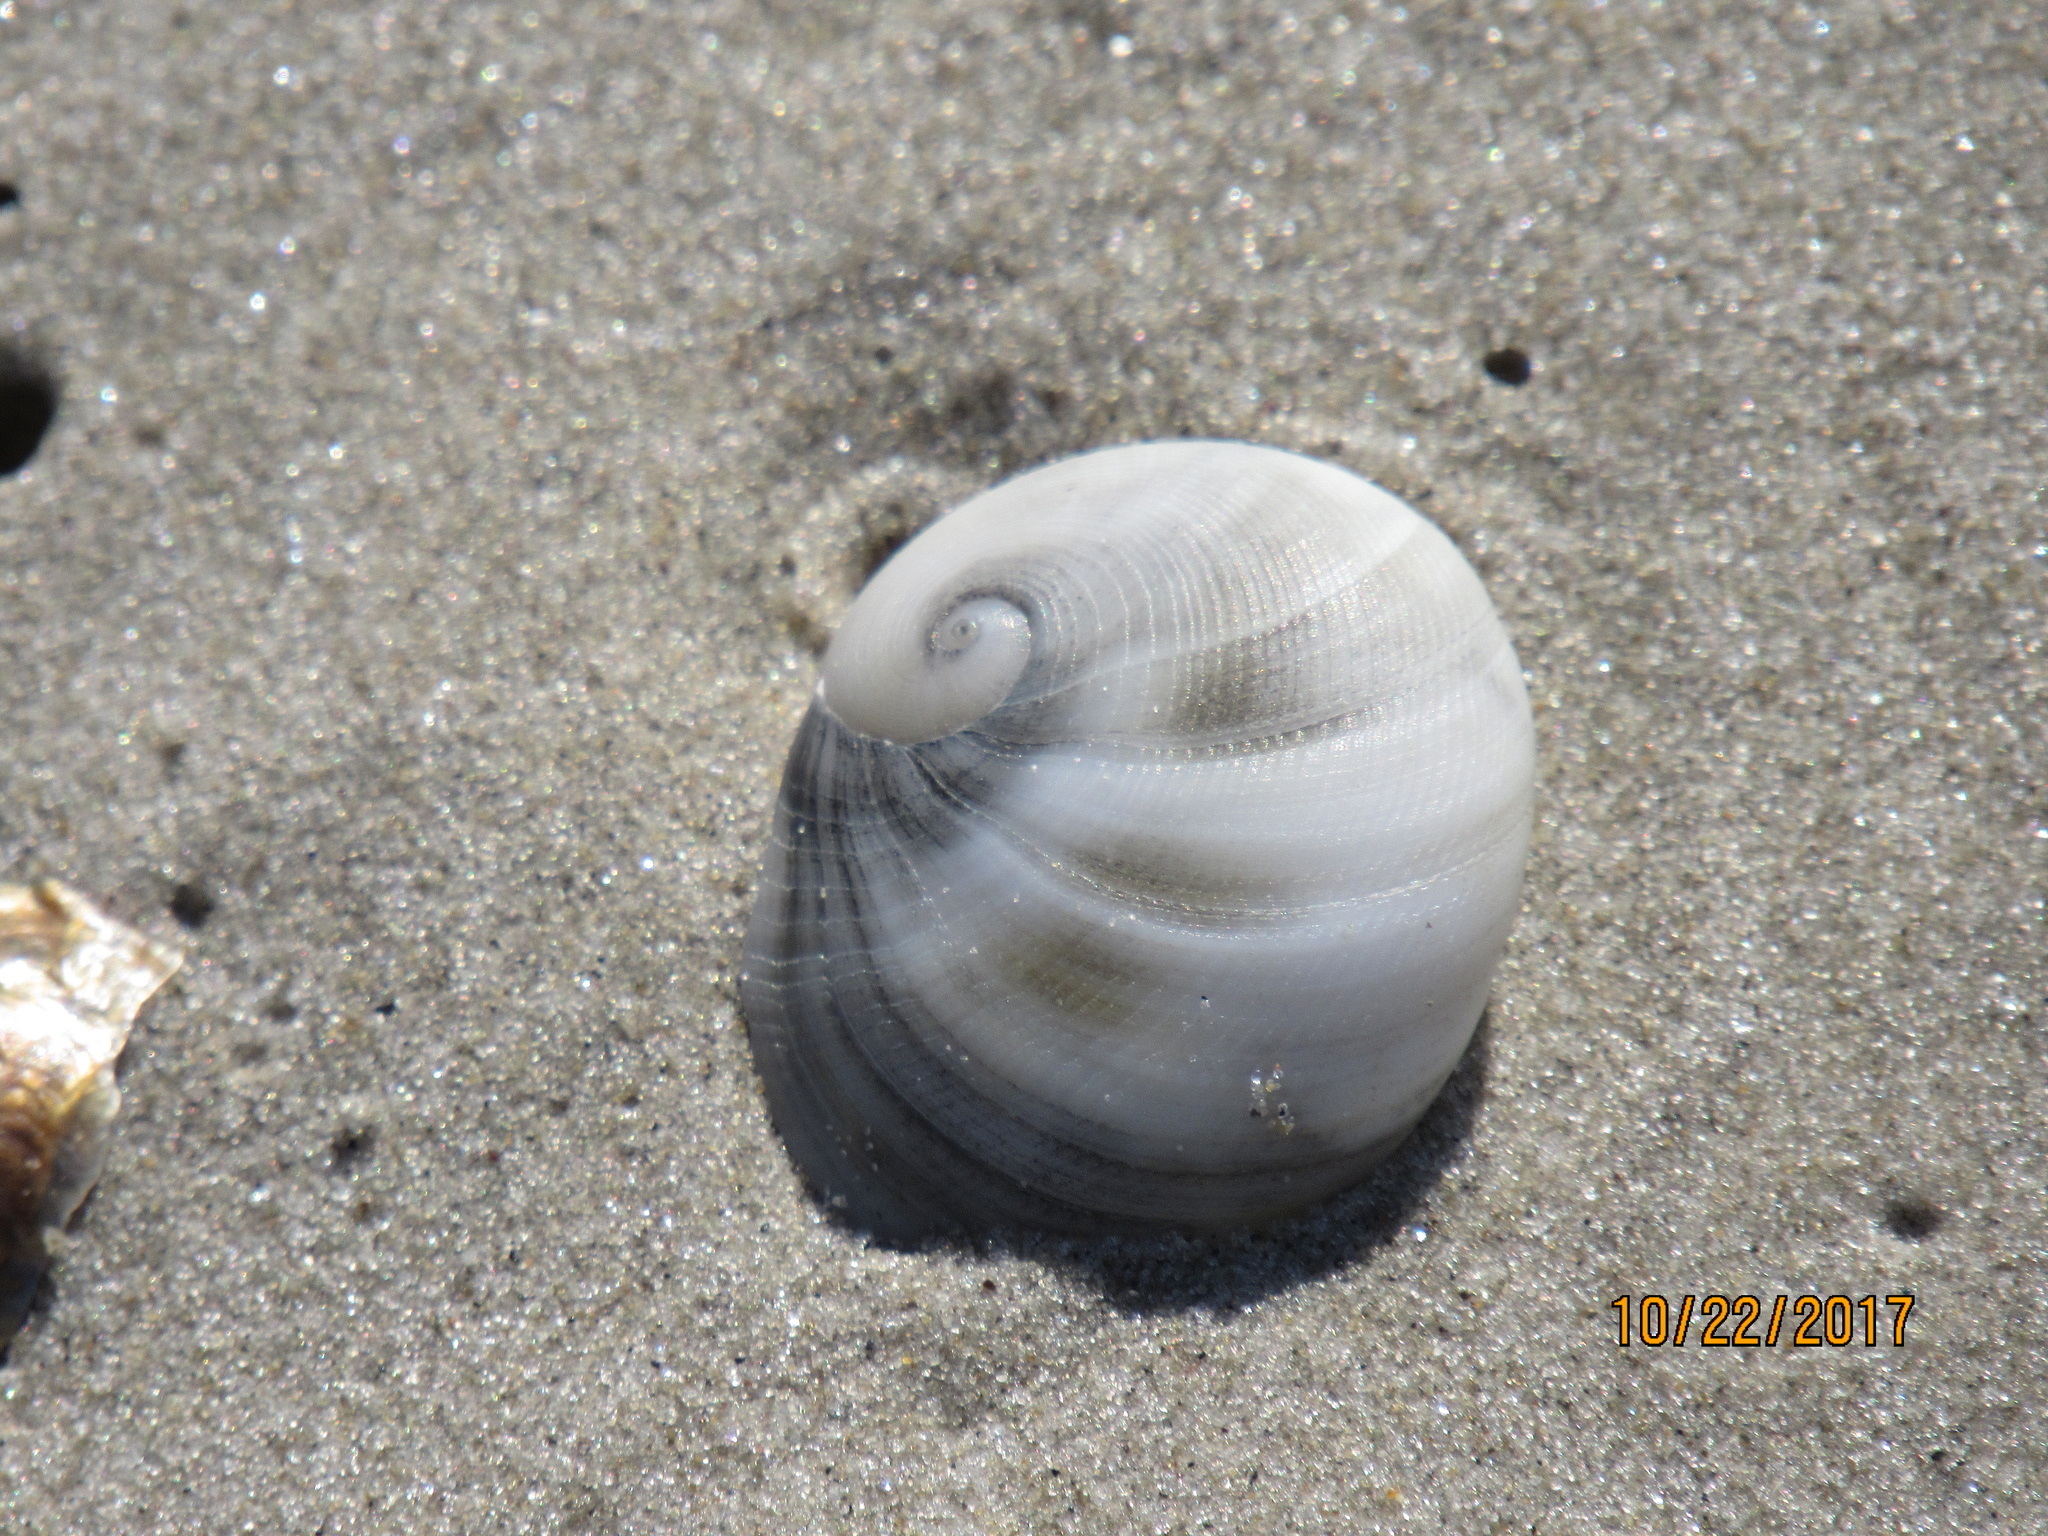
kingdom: Animalia
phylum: Mollusca
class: Gastropoda
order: Littorinimorpha
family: Naticidae
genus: Sinum
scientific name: Sinum perspectivum
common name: White baby ear
